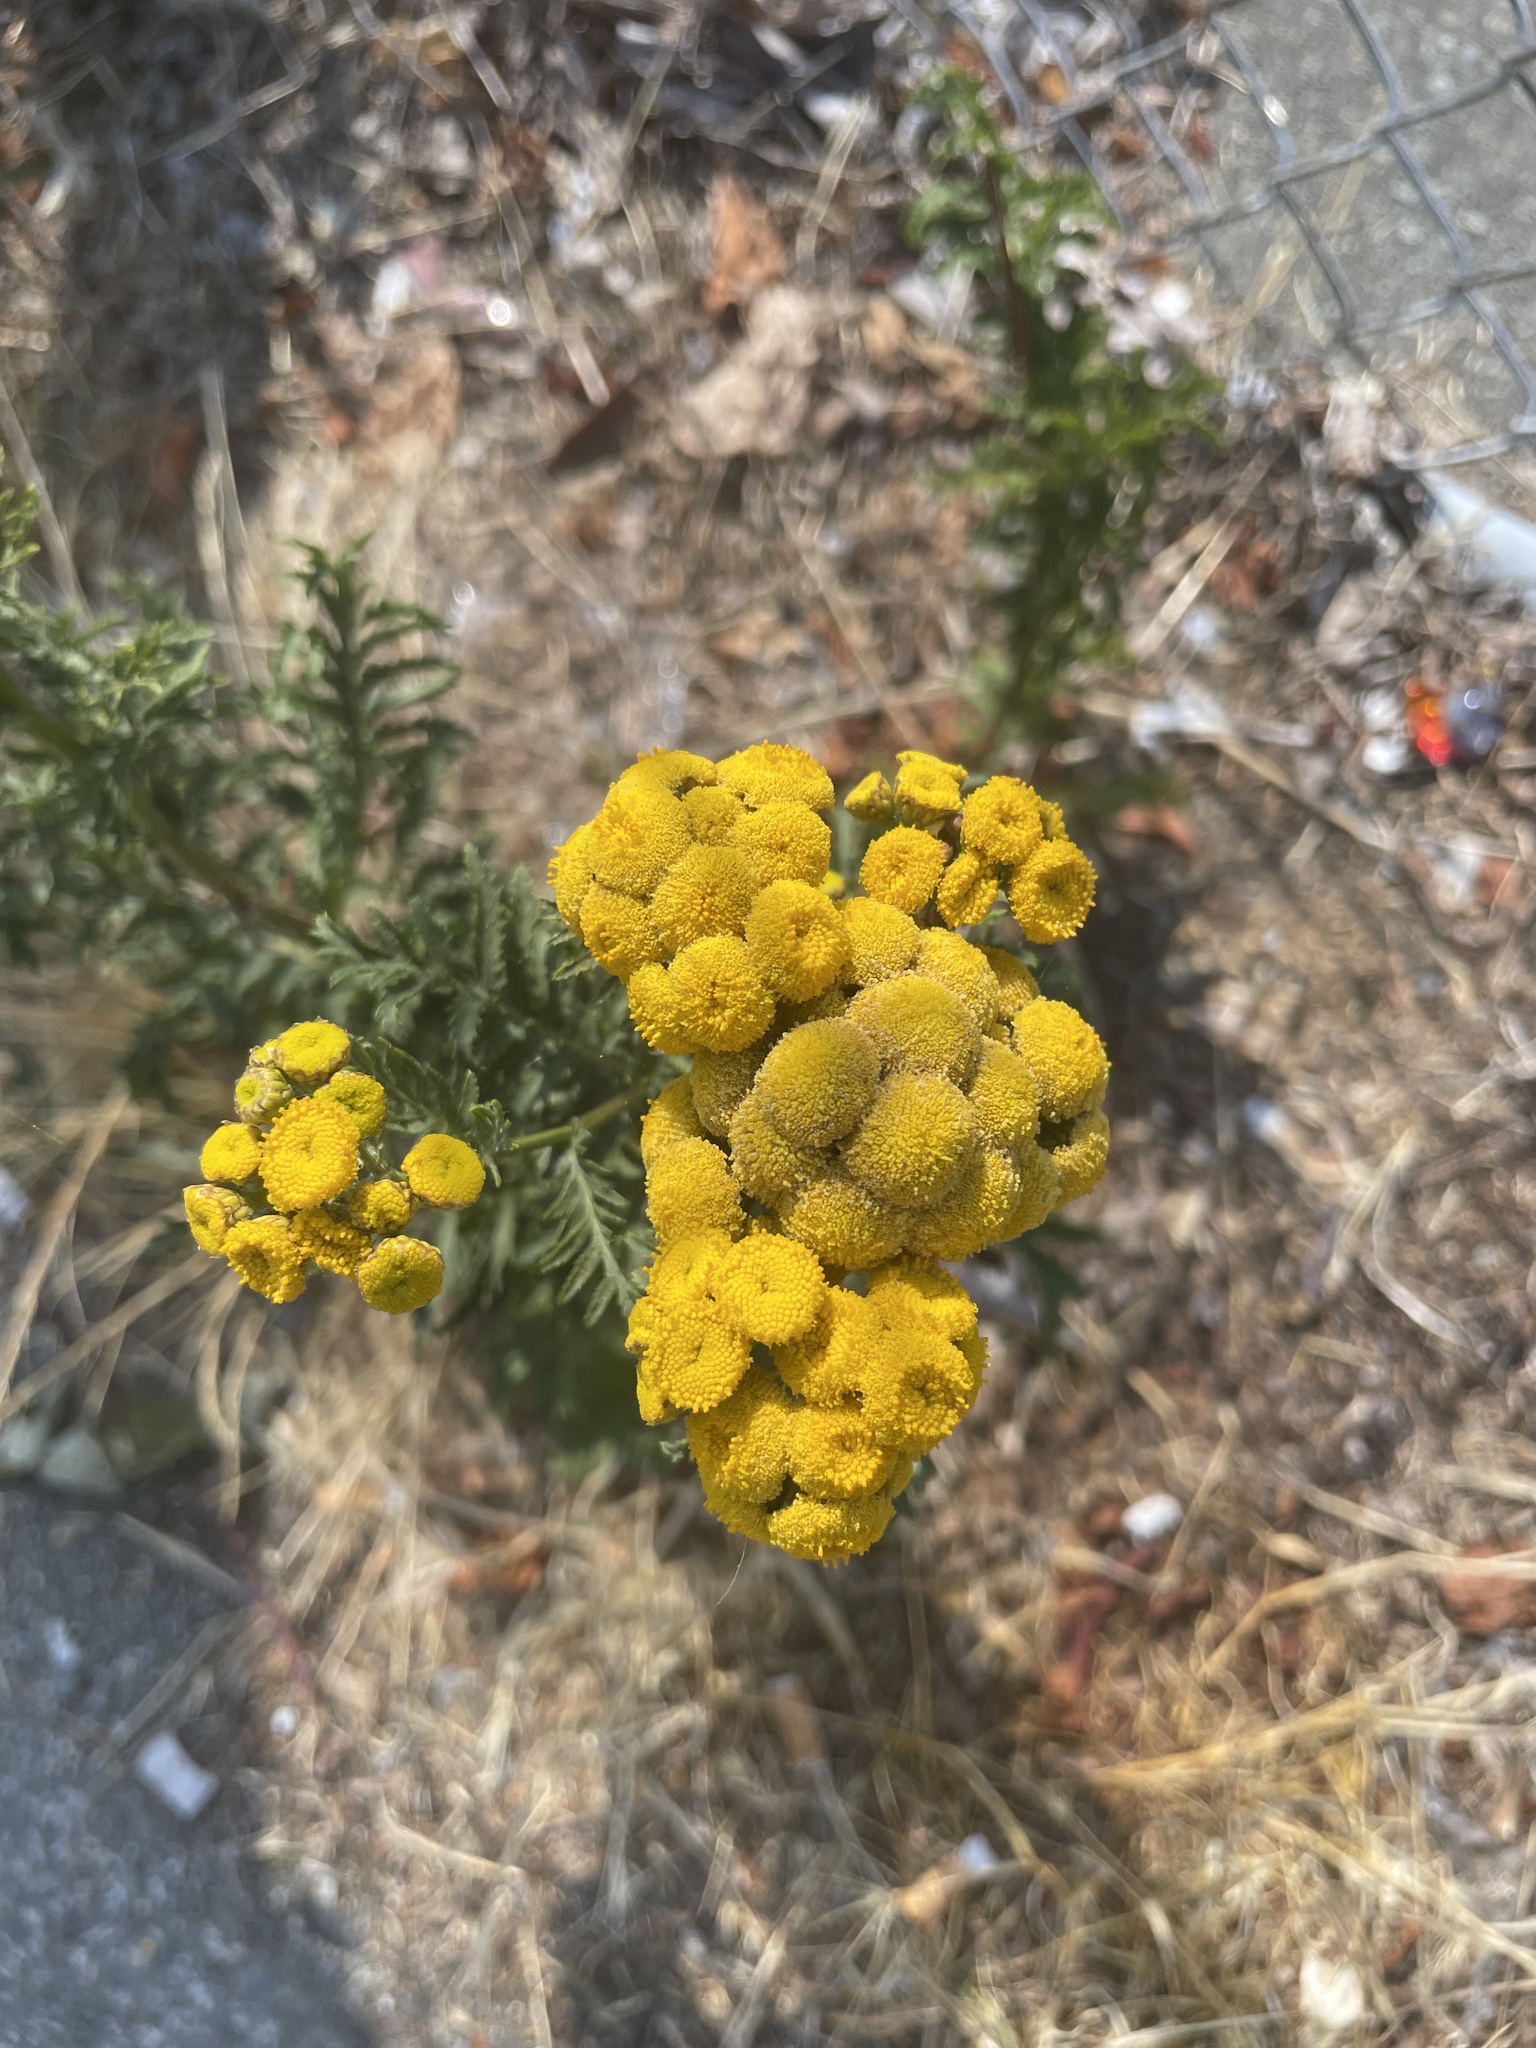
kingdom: Plantae
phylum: Tracheophyta
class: Magnoliopsida
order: Asterales
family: Asteraceae
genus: Tanacetum
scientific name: Tanacetum vulgare
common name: Common tansy
